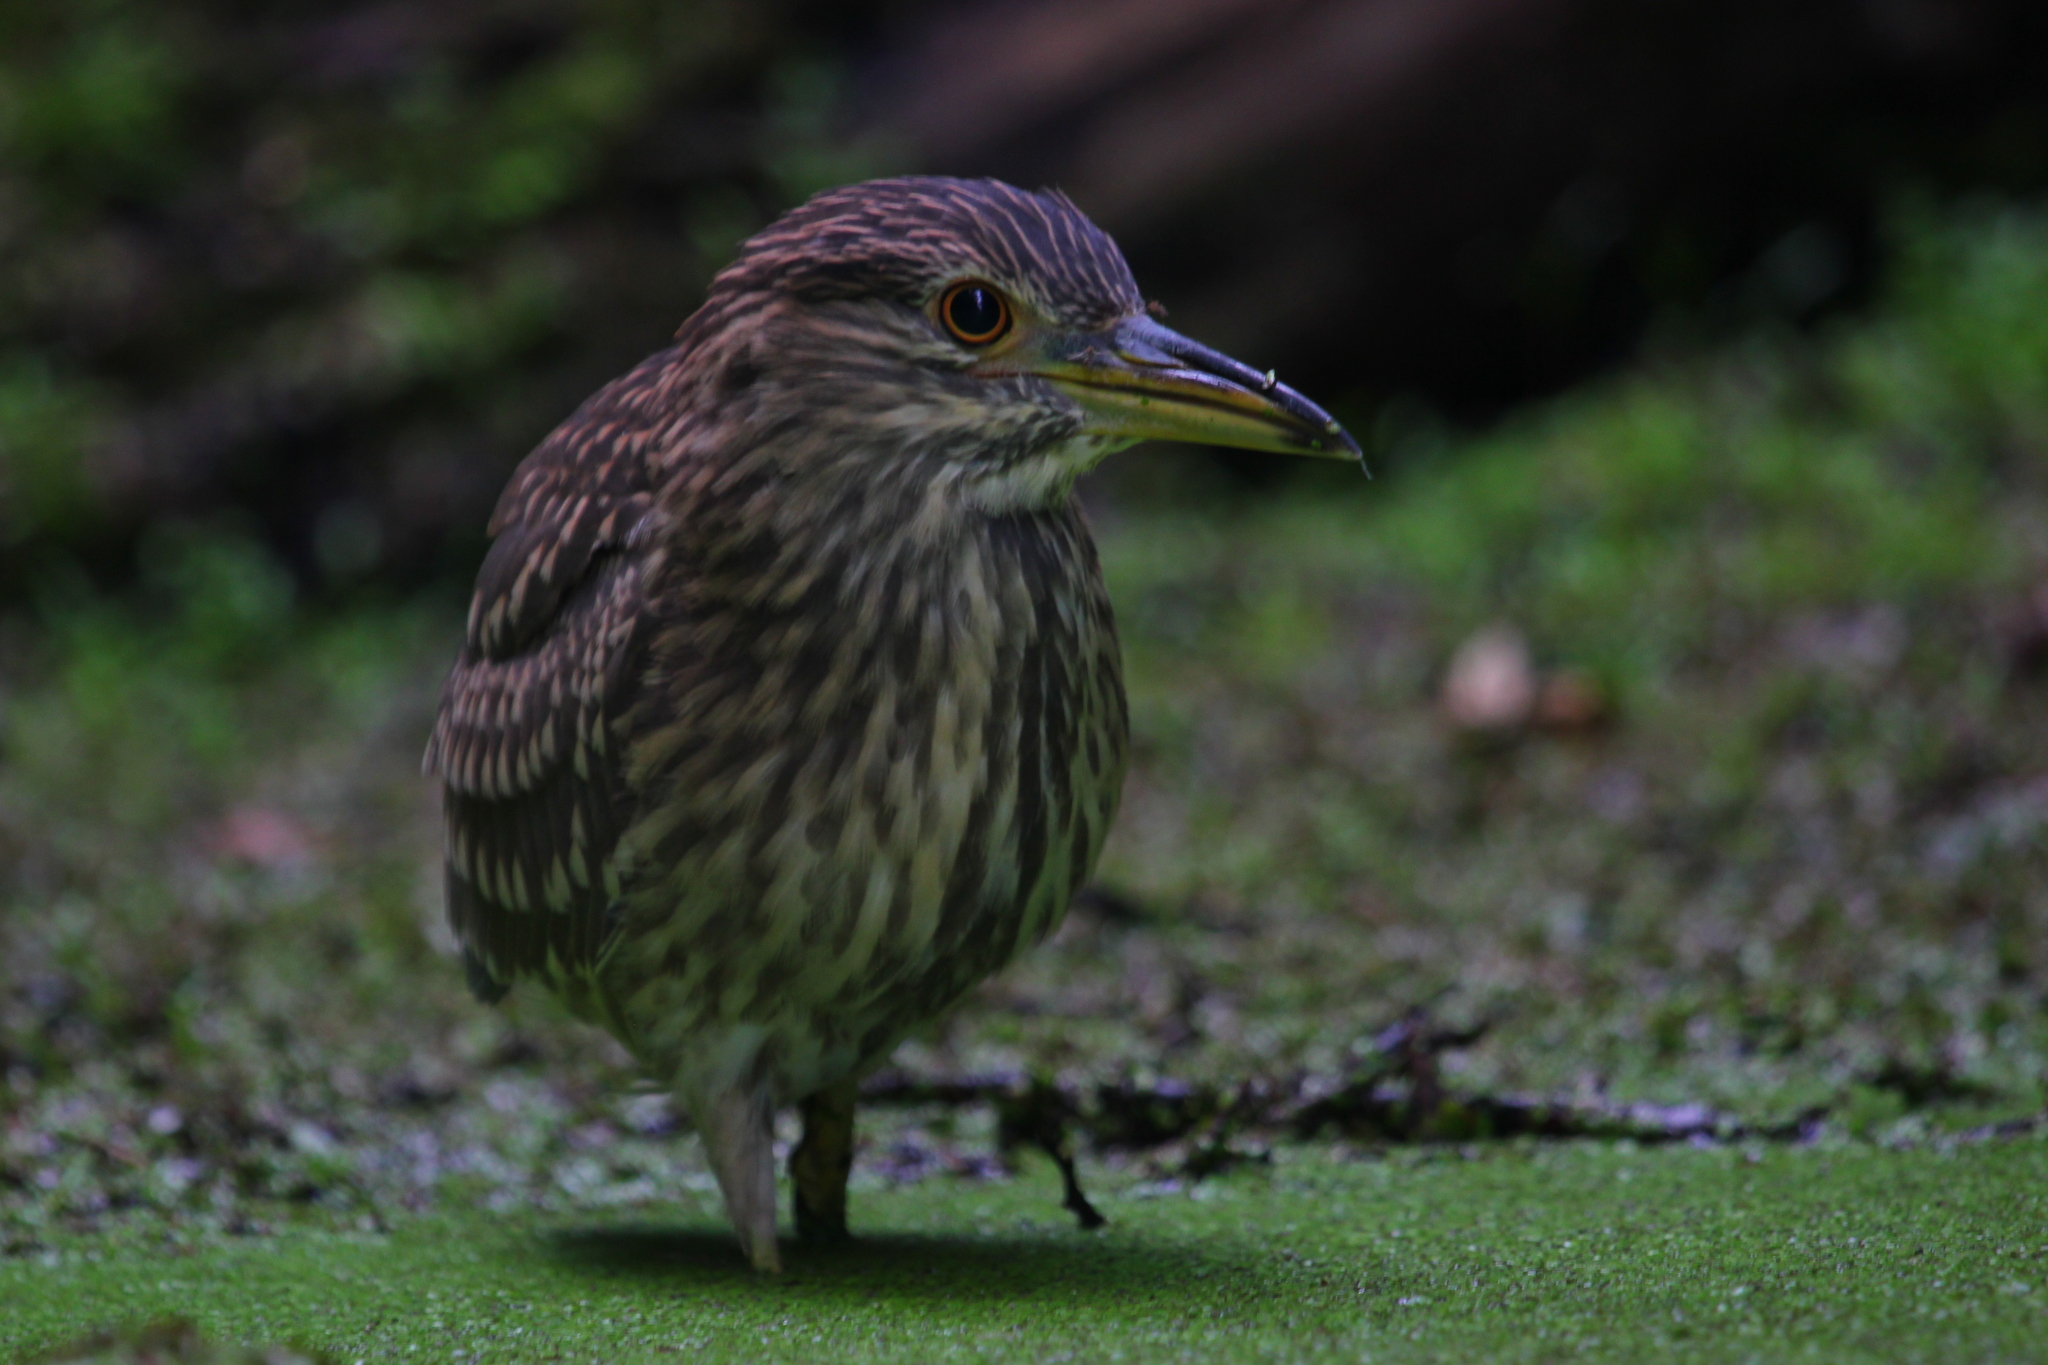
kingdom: Animalia
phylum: Chordata
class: Aves
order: Pelecaniformes
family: Ardeidae
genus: Nycticorax
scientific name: Nycticorax nycticorax
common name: Black-crowned night heron
